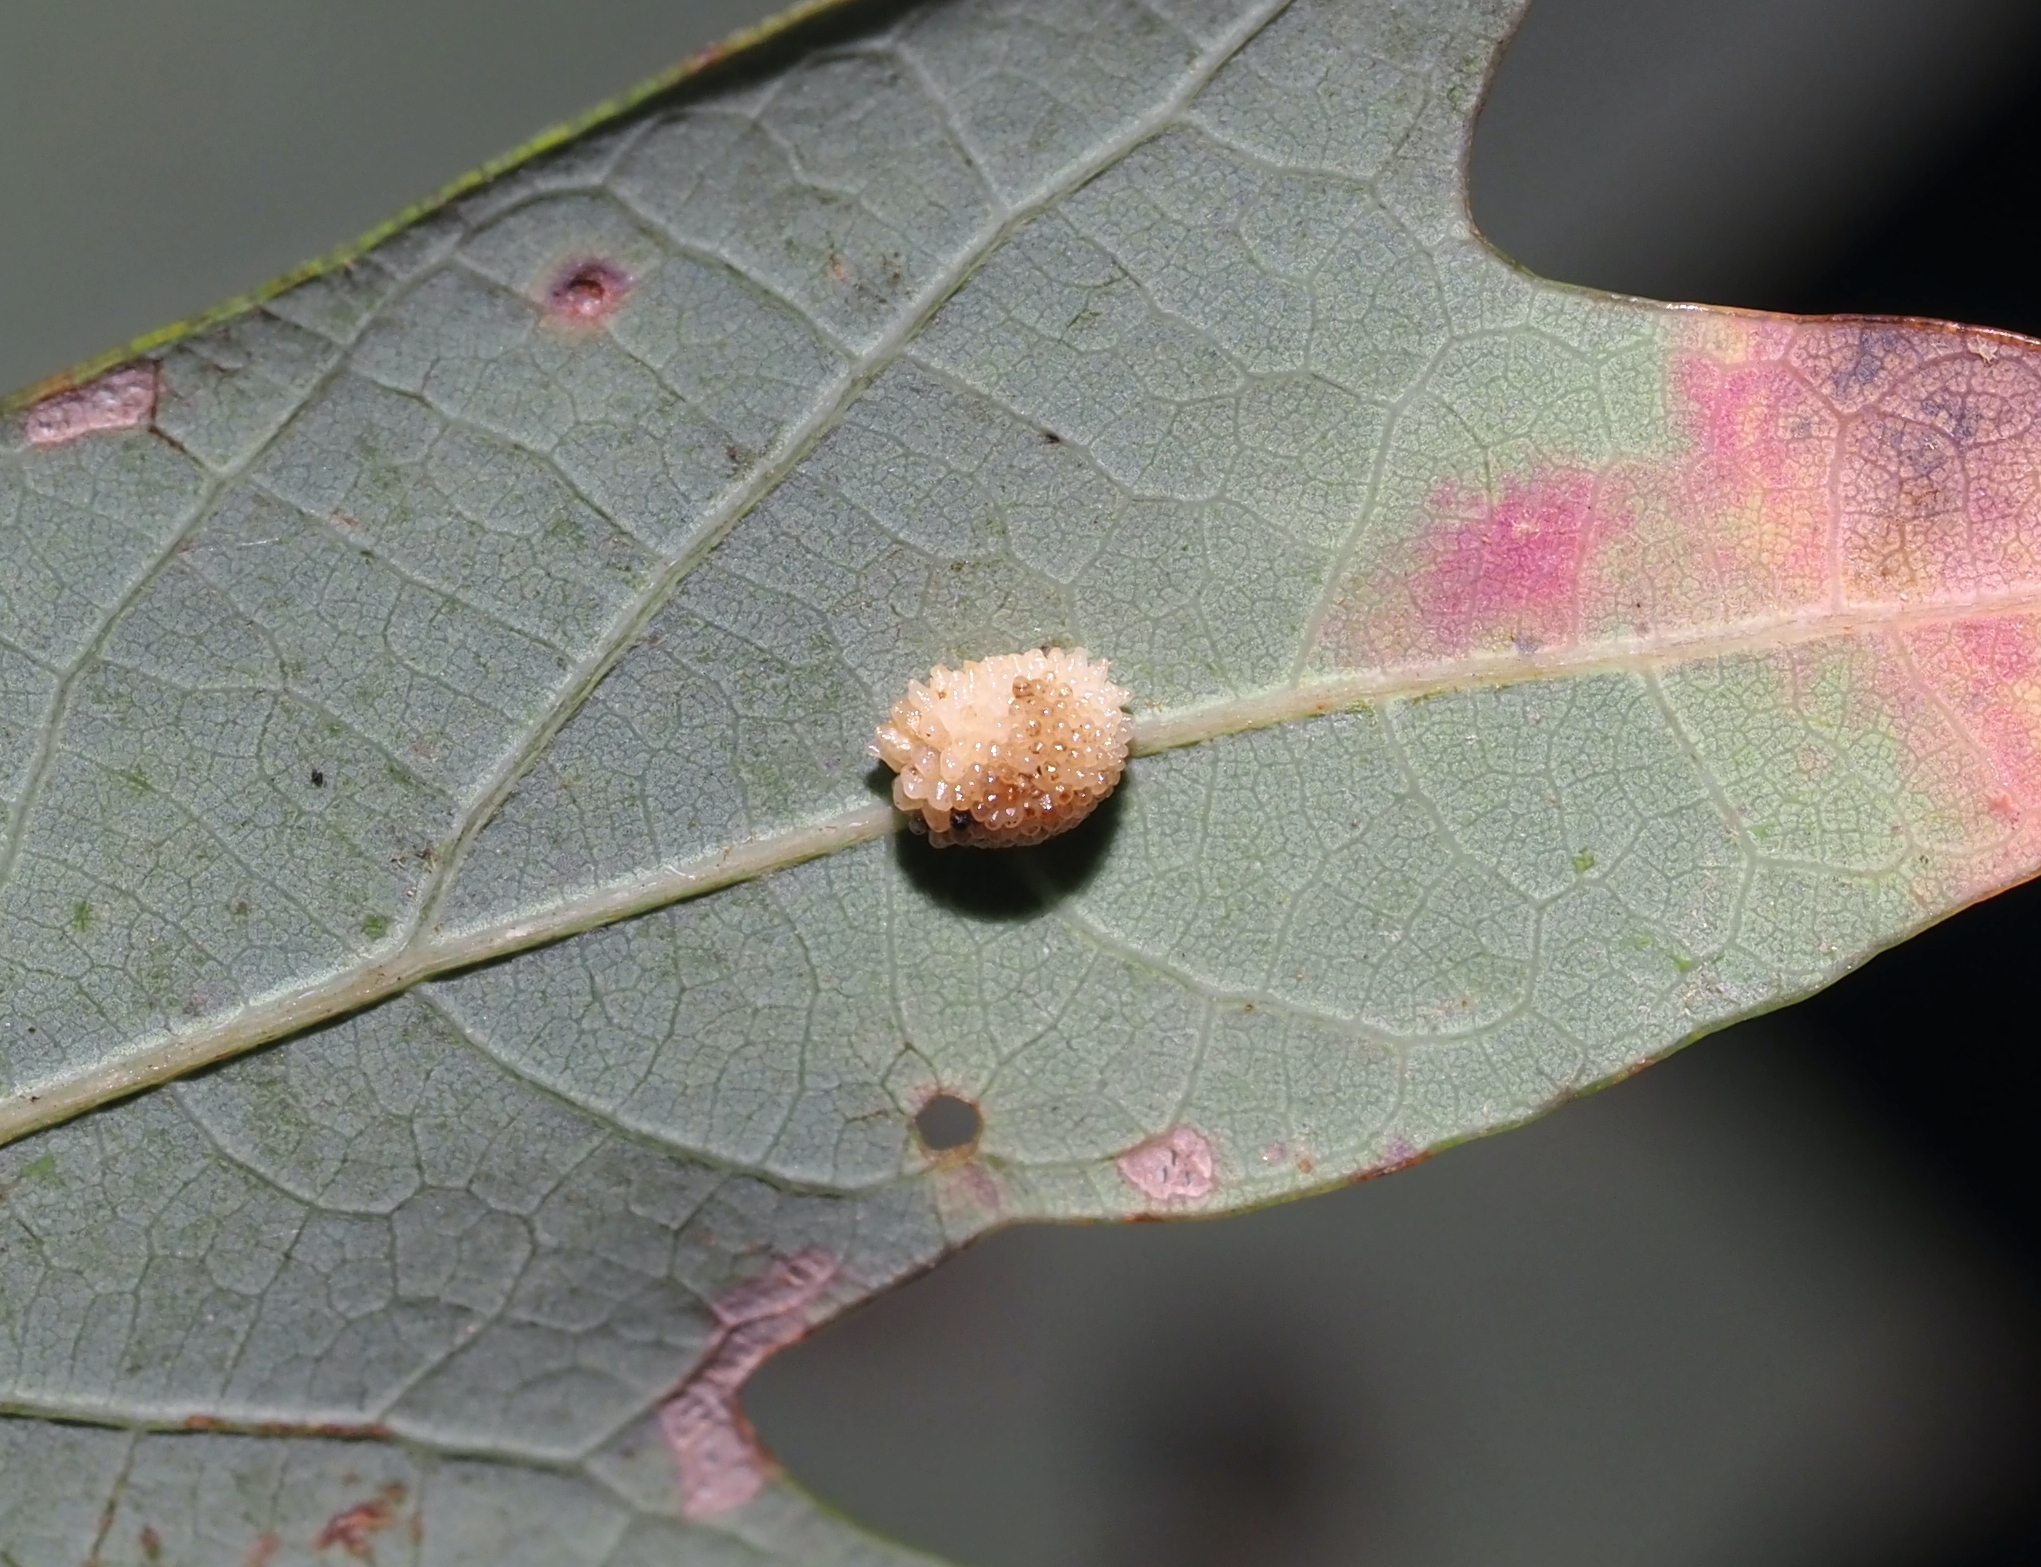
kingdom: Animalia
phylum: Arthropoda
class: Insecta
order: Hymenoptera
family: Cynipidae
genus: Acraspis
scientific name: Acraspis
